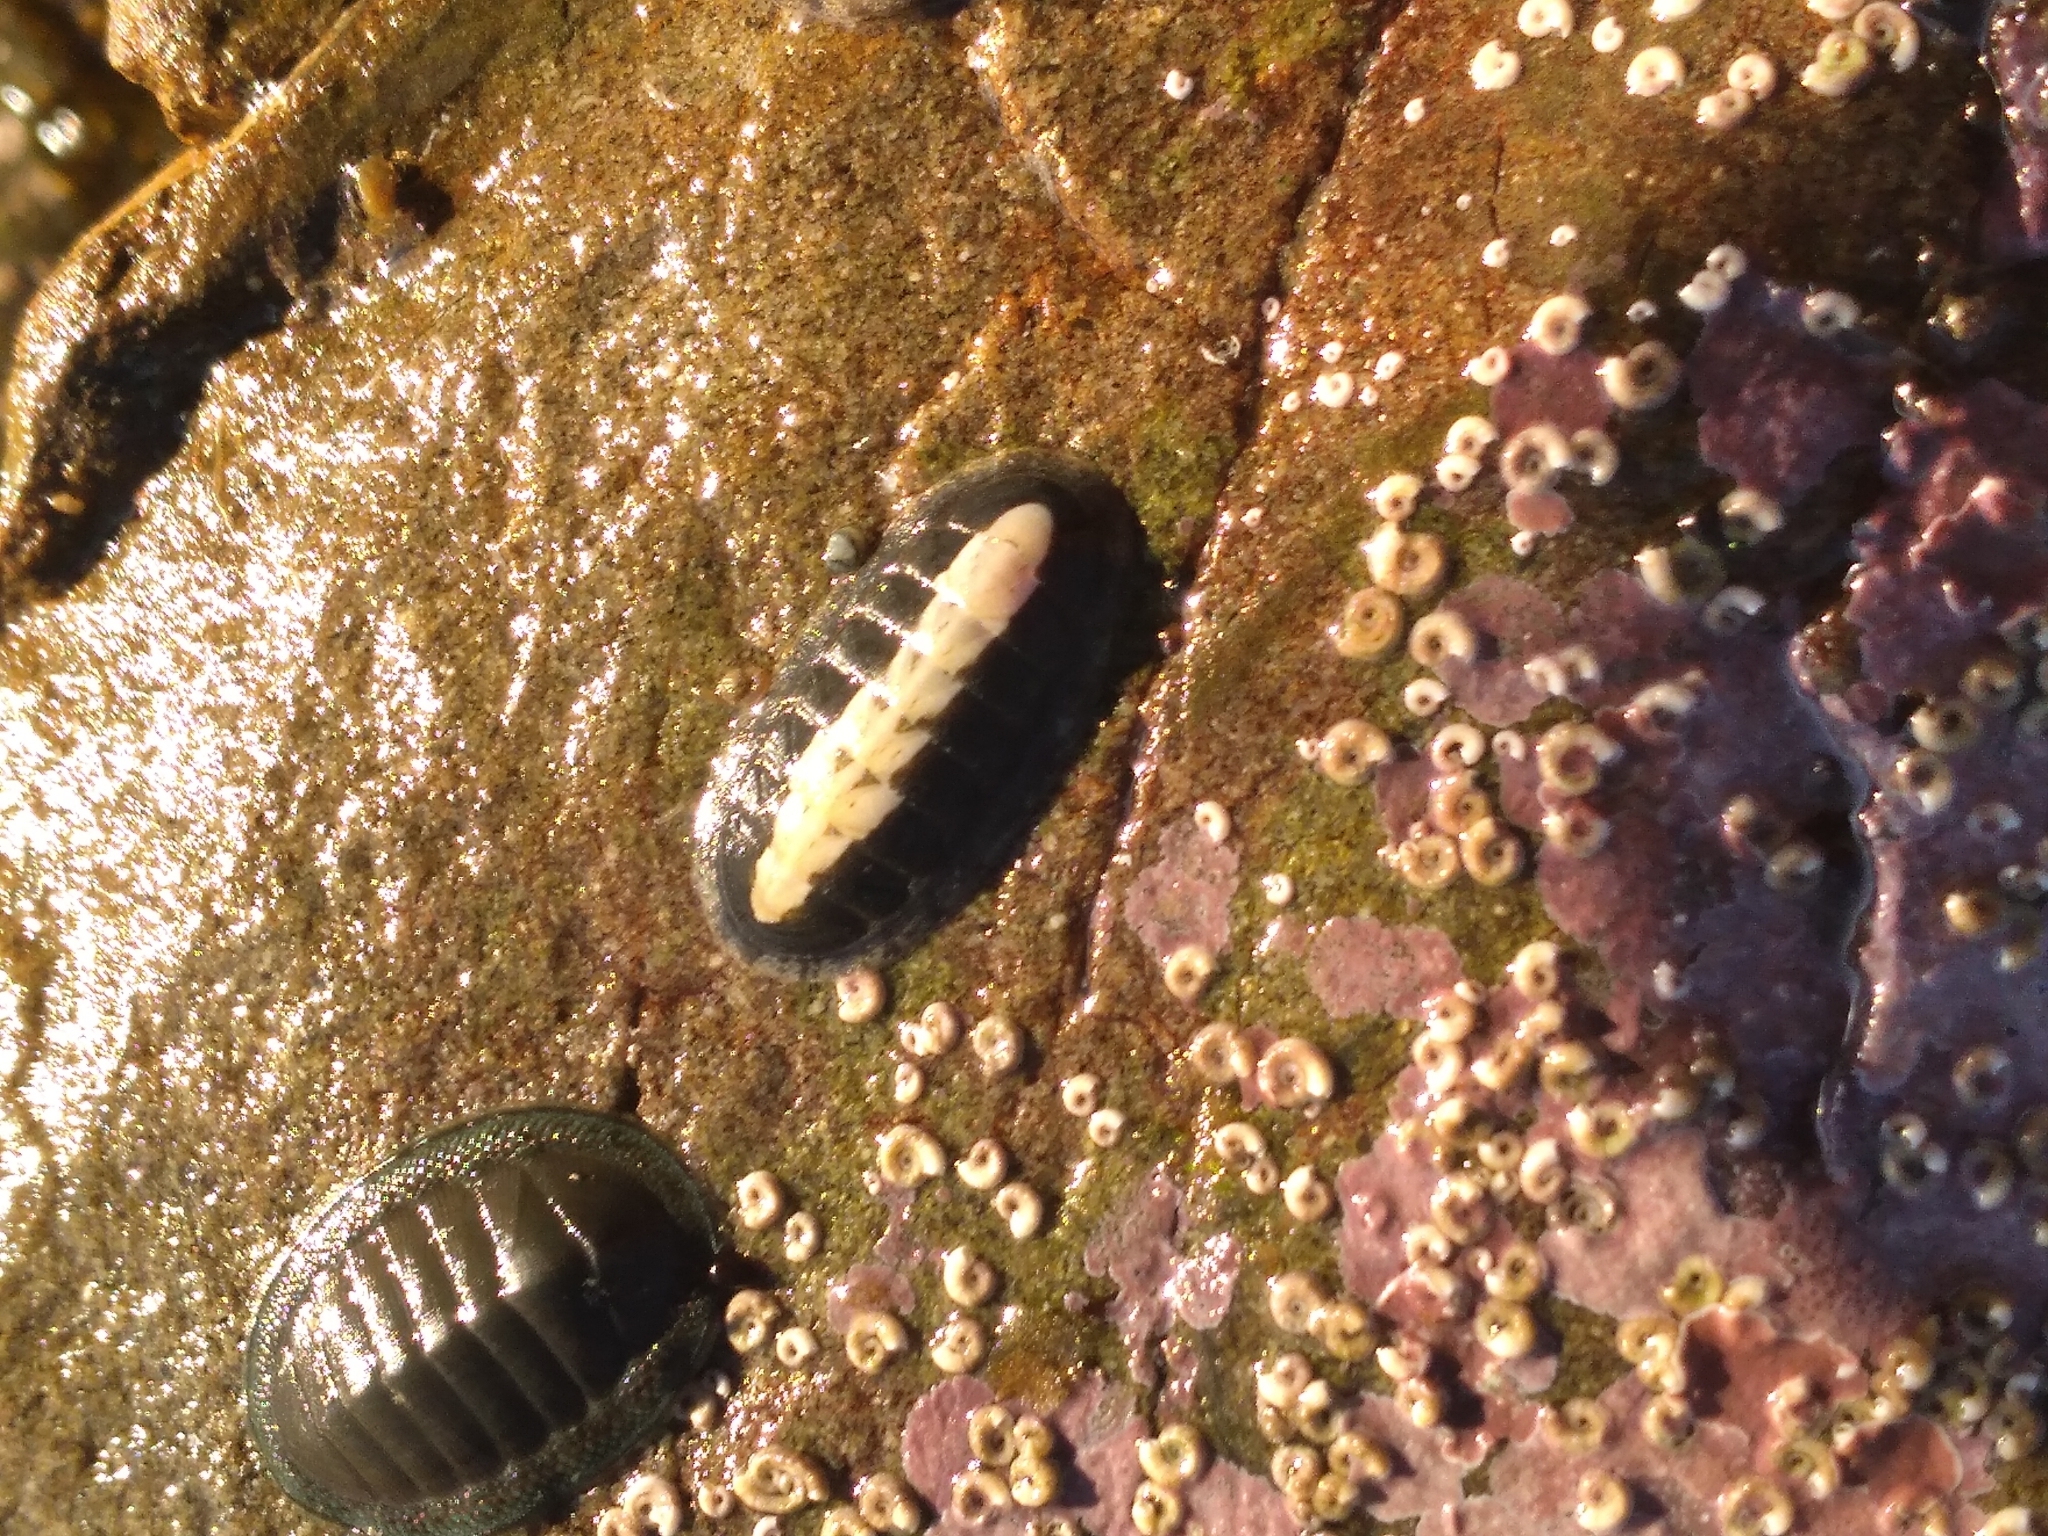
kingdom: Animalia
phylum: Mollusca
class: Polyplacophora
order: Chitonida
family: Ischnochitonidae
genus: Ischnochiton
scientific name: Ischnochiton maorianus
